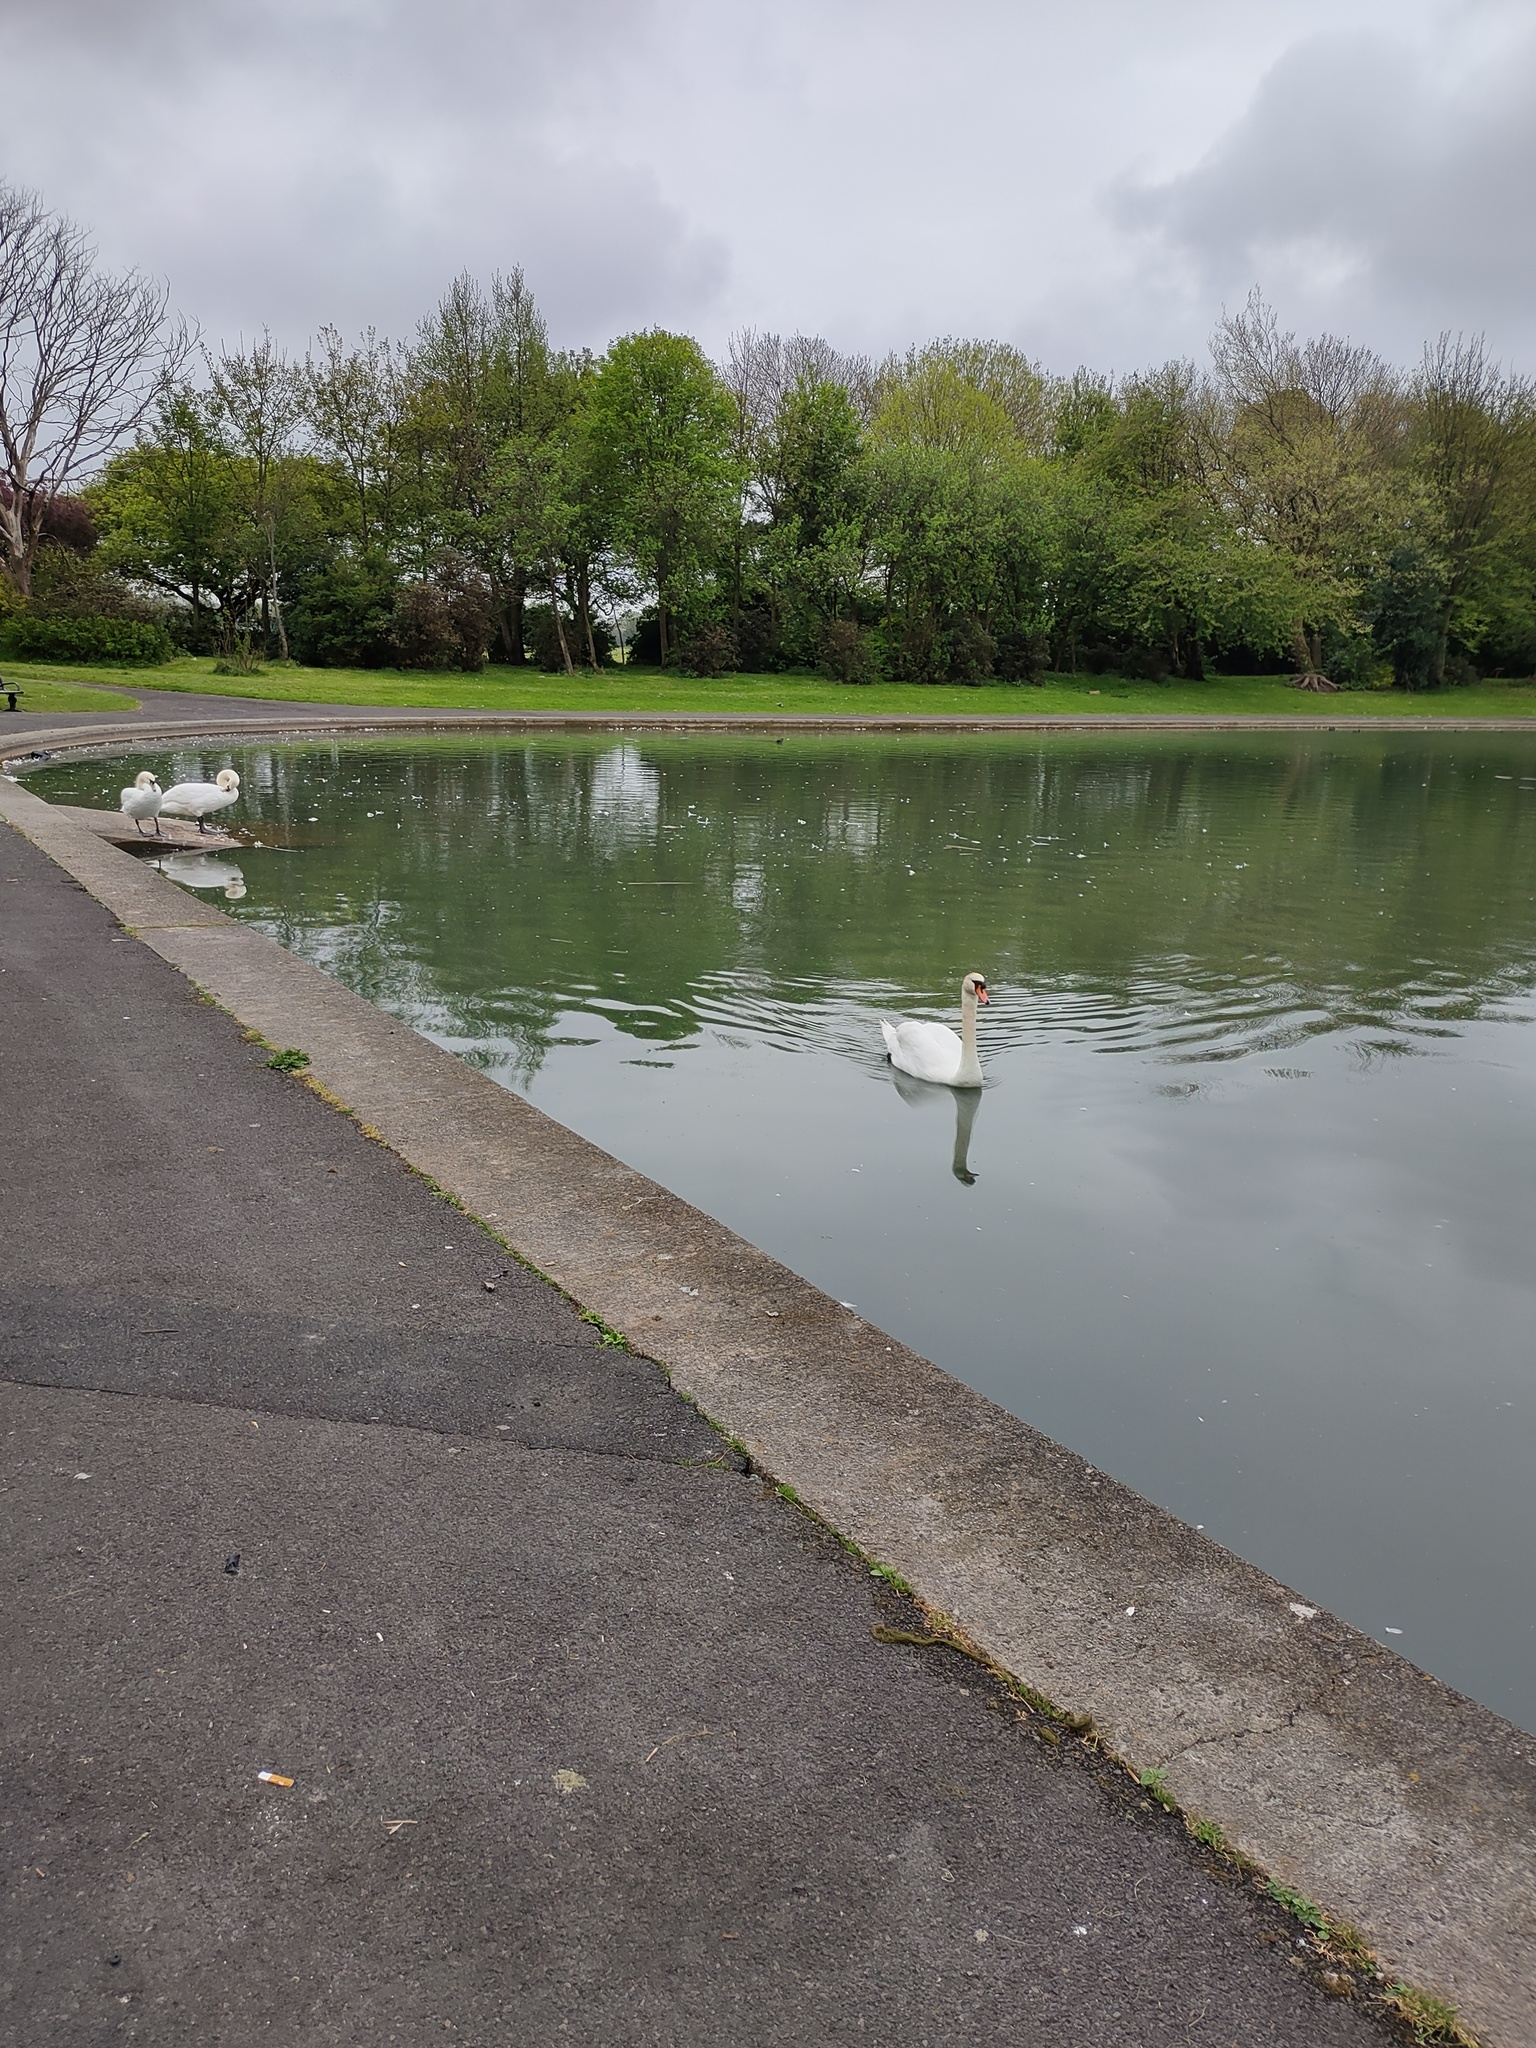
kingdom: Animalia
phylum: Chordata
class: Aves
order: Anseriformes
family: Anatidae
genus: Cygnus
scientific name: Cygnus olor
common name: Mute swan
